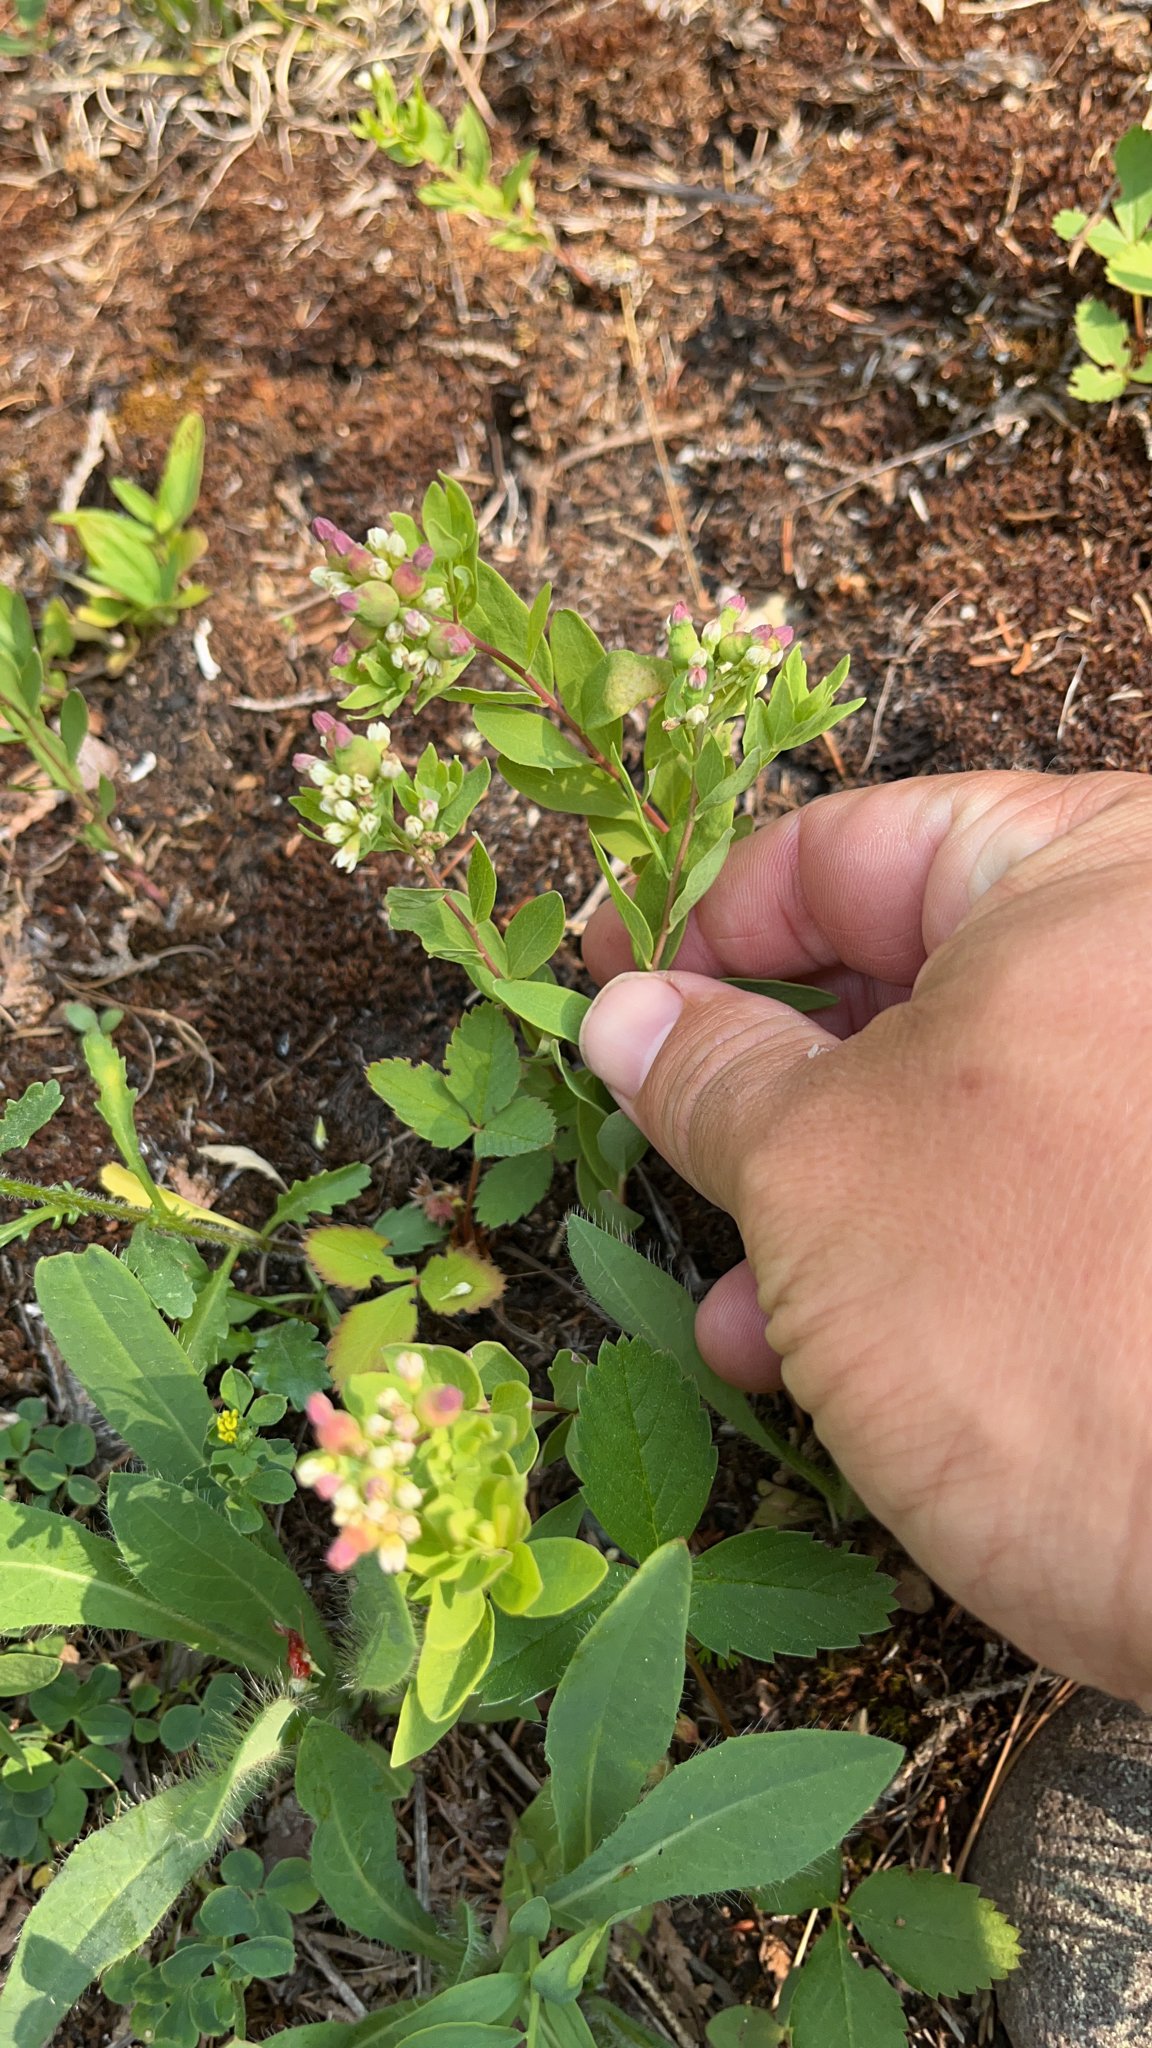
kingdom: Plantae
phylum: Tracheophyta
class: Magnoliopsida
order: Santalales
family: Comandraceae
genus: Comandra
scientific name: Comandra umbellata
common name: Bastard toadflax
